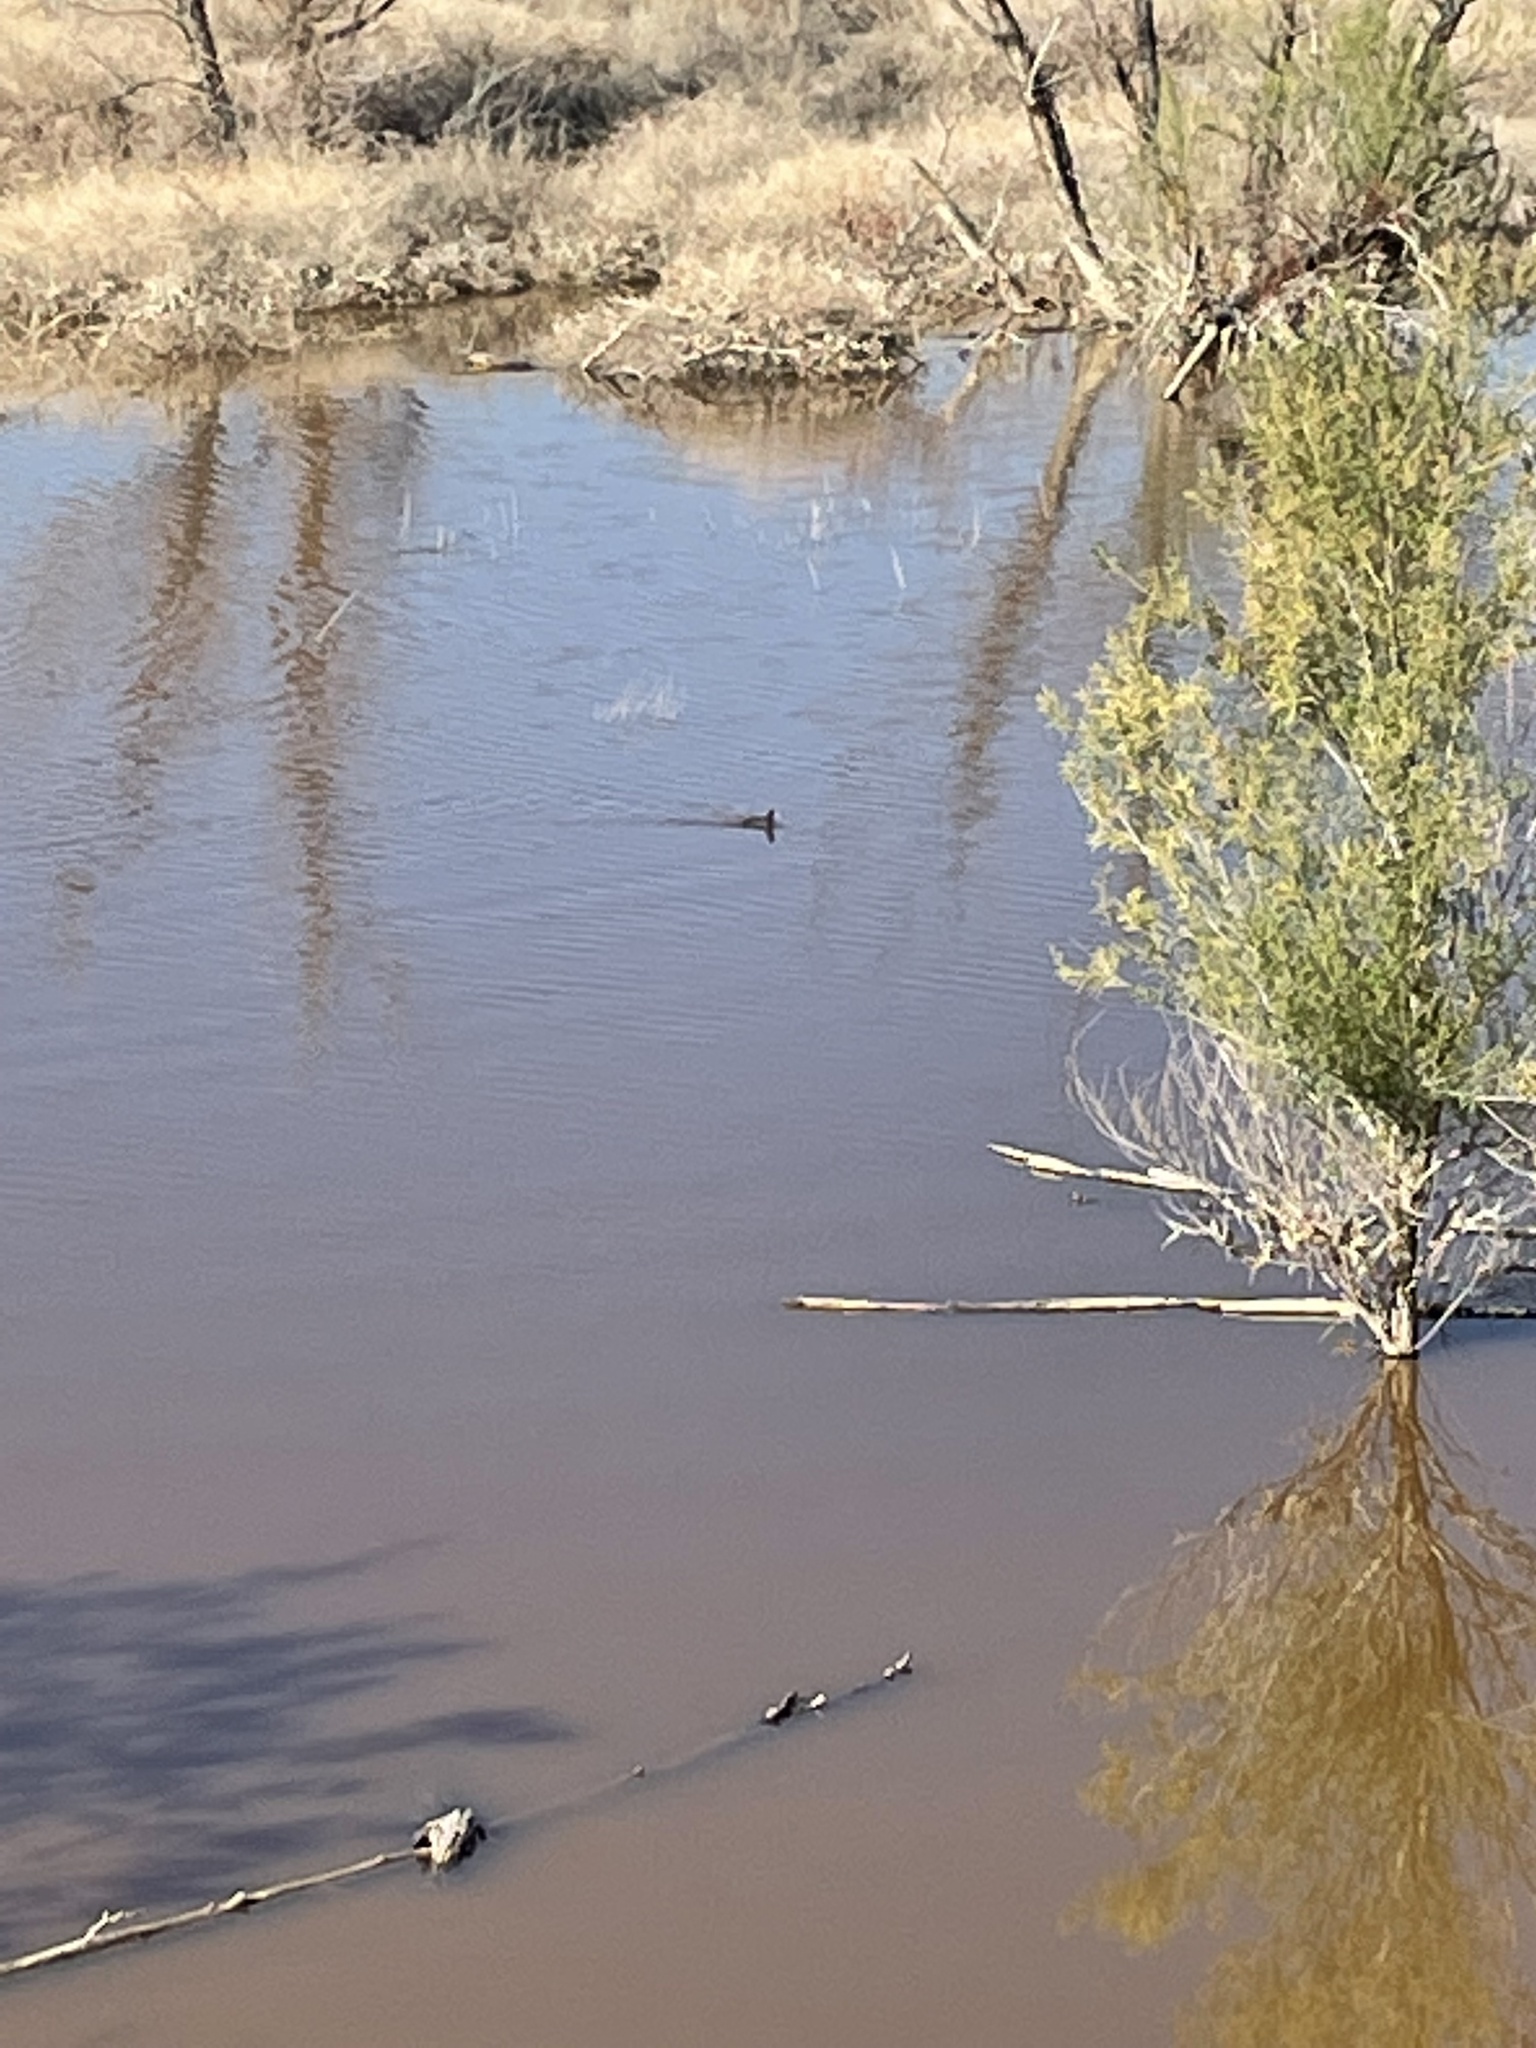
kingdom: Animalia
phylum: Chordata
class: Aves
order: Gruiformes
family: Rallidae
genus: Fulica
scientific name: Fulica americana
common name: American coot
